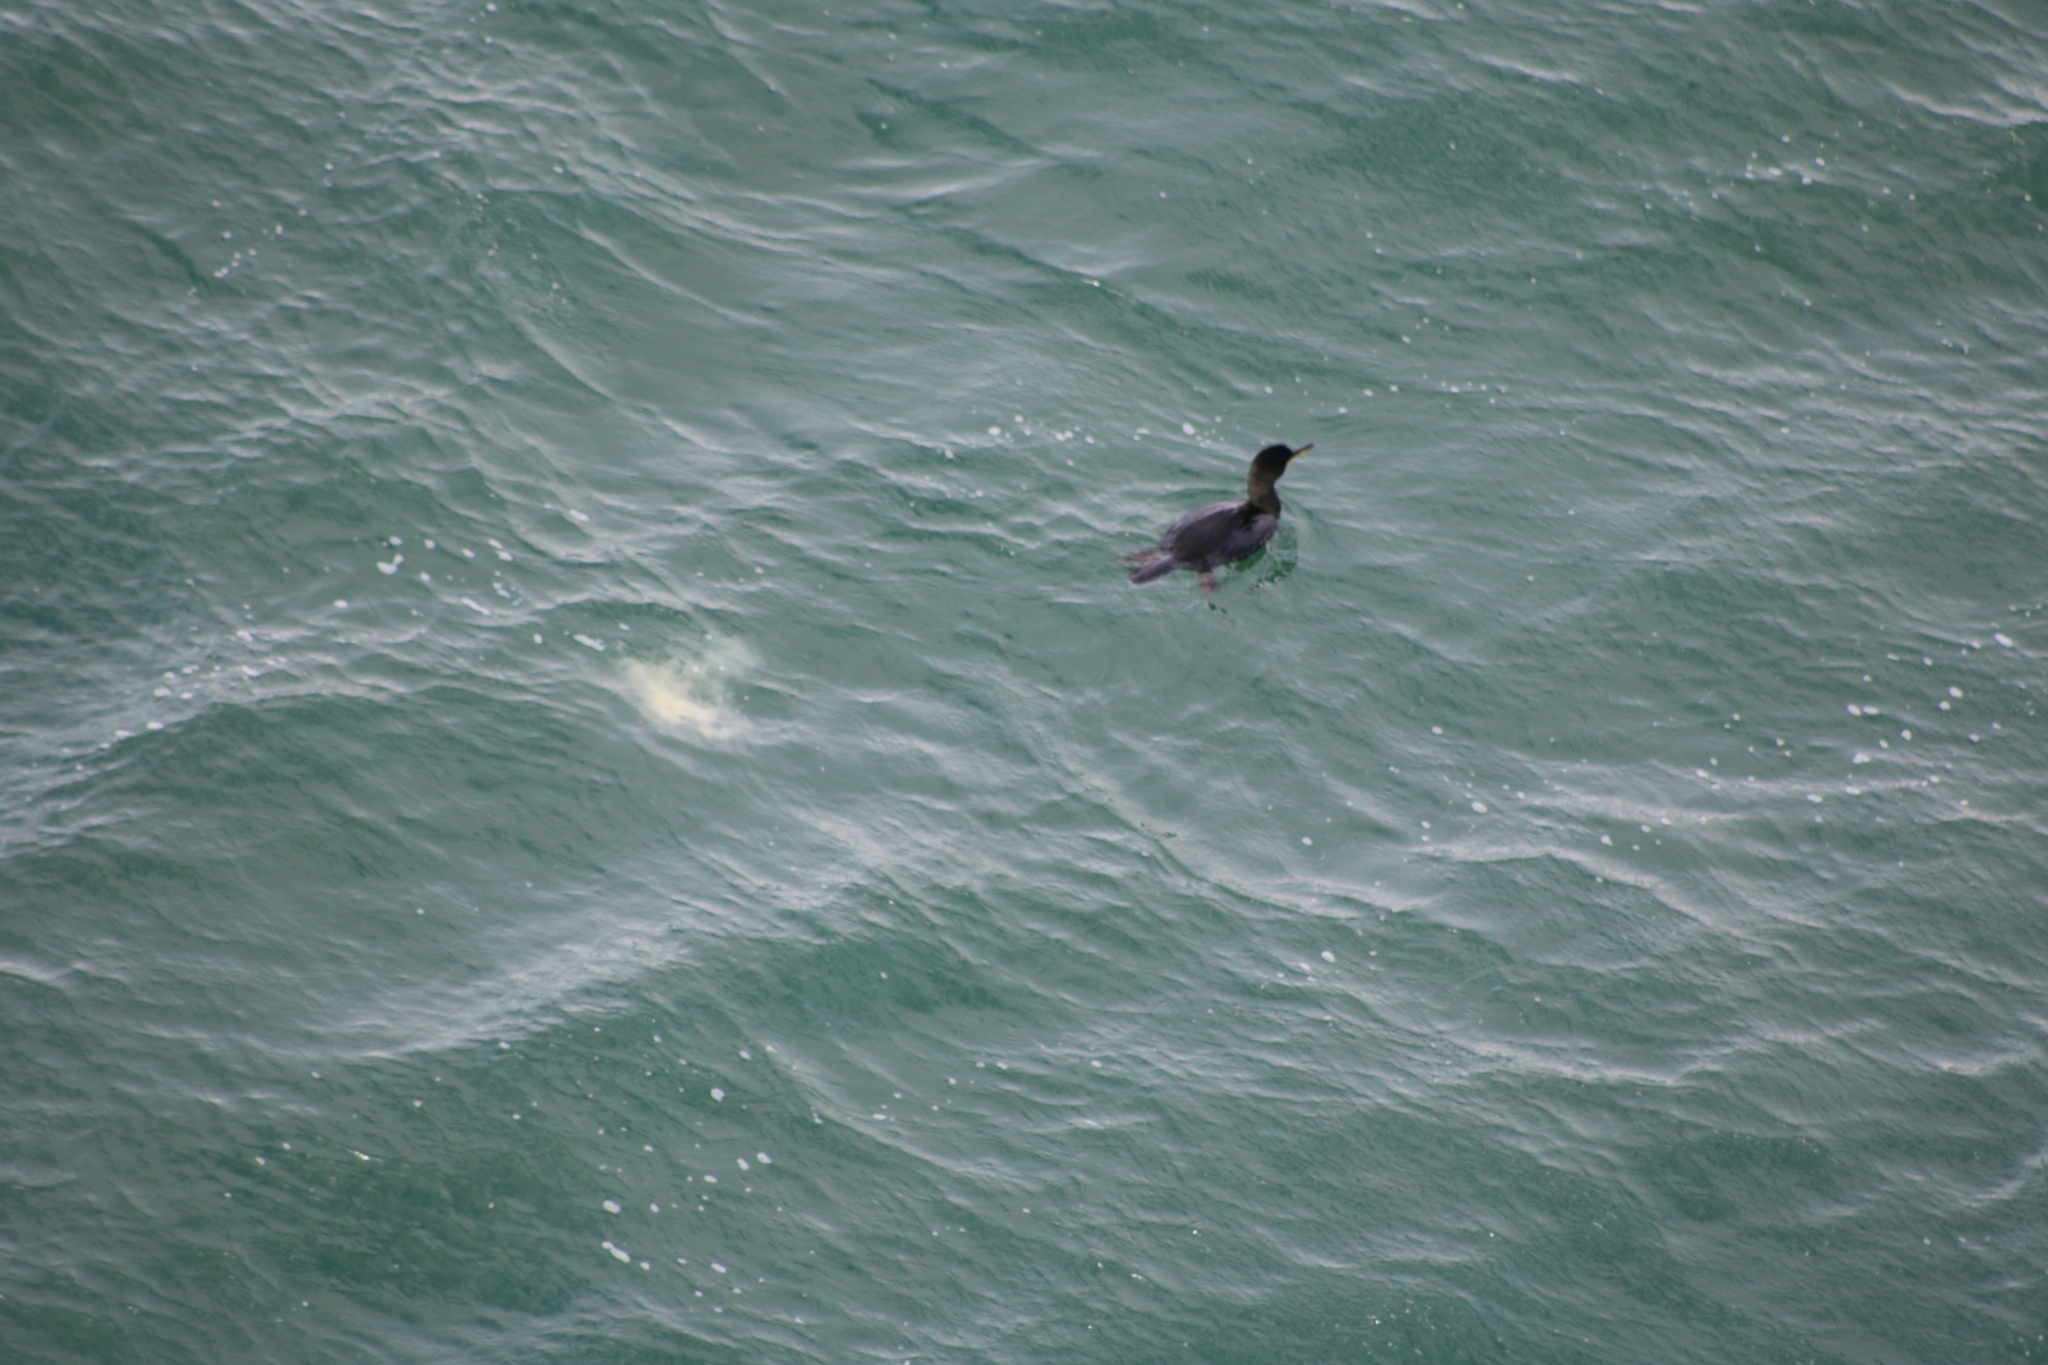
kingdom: Animalia
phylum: Chordata
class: Aves
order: Suliformes
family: Phalacrocoracidae
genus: Phalacrocorax
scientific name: Phalacrocorax aristotelis
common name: European shag
